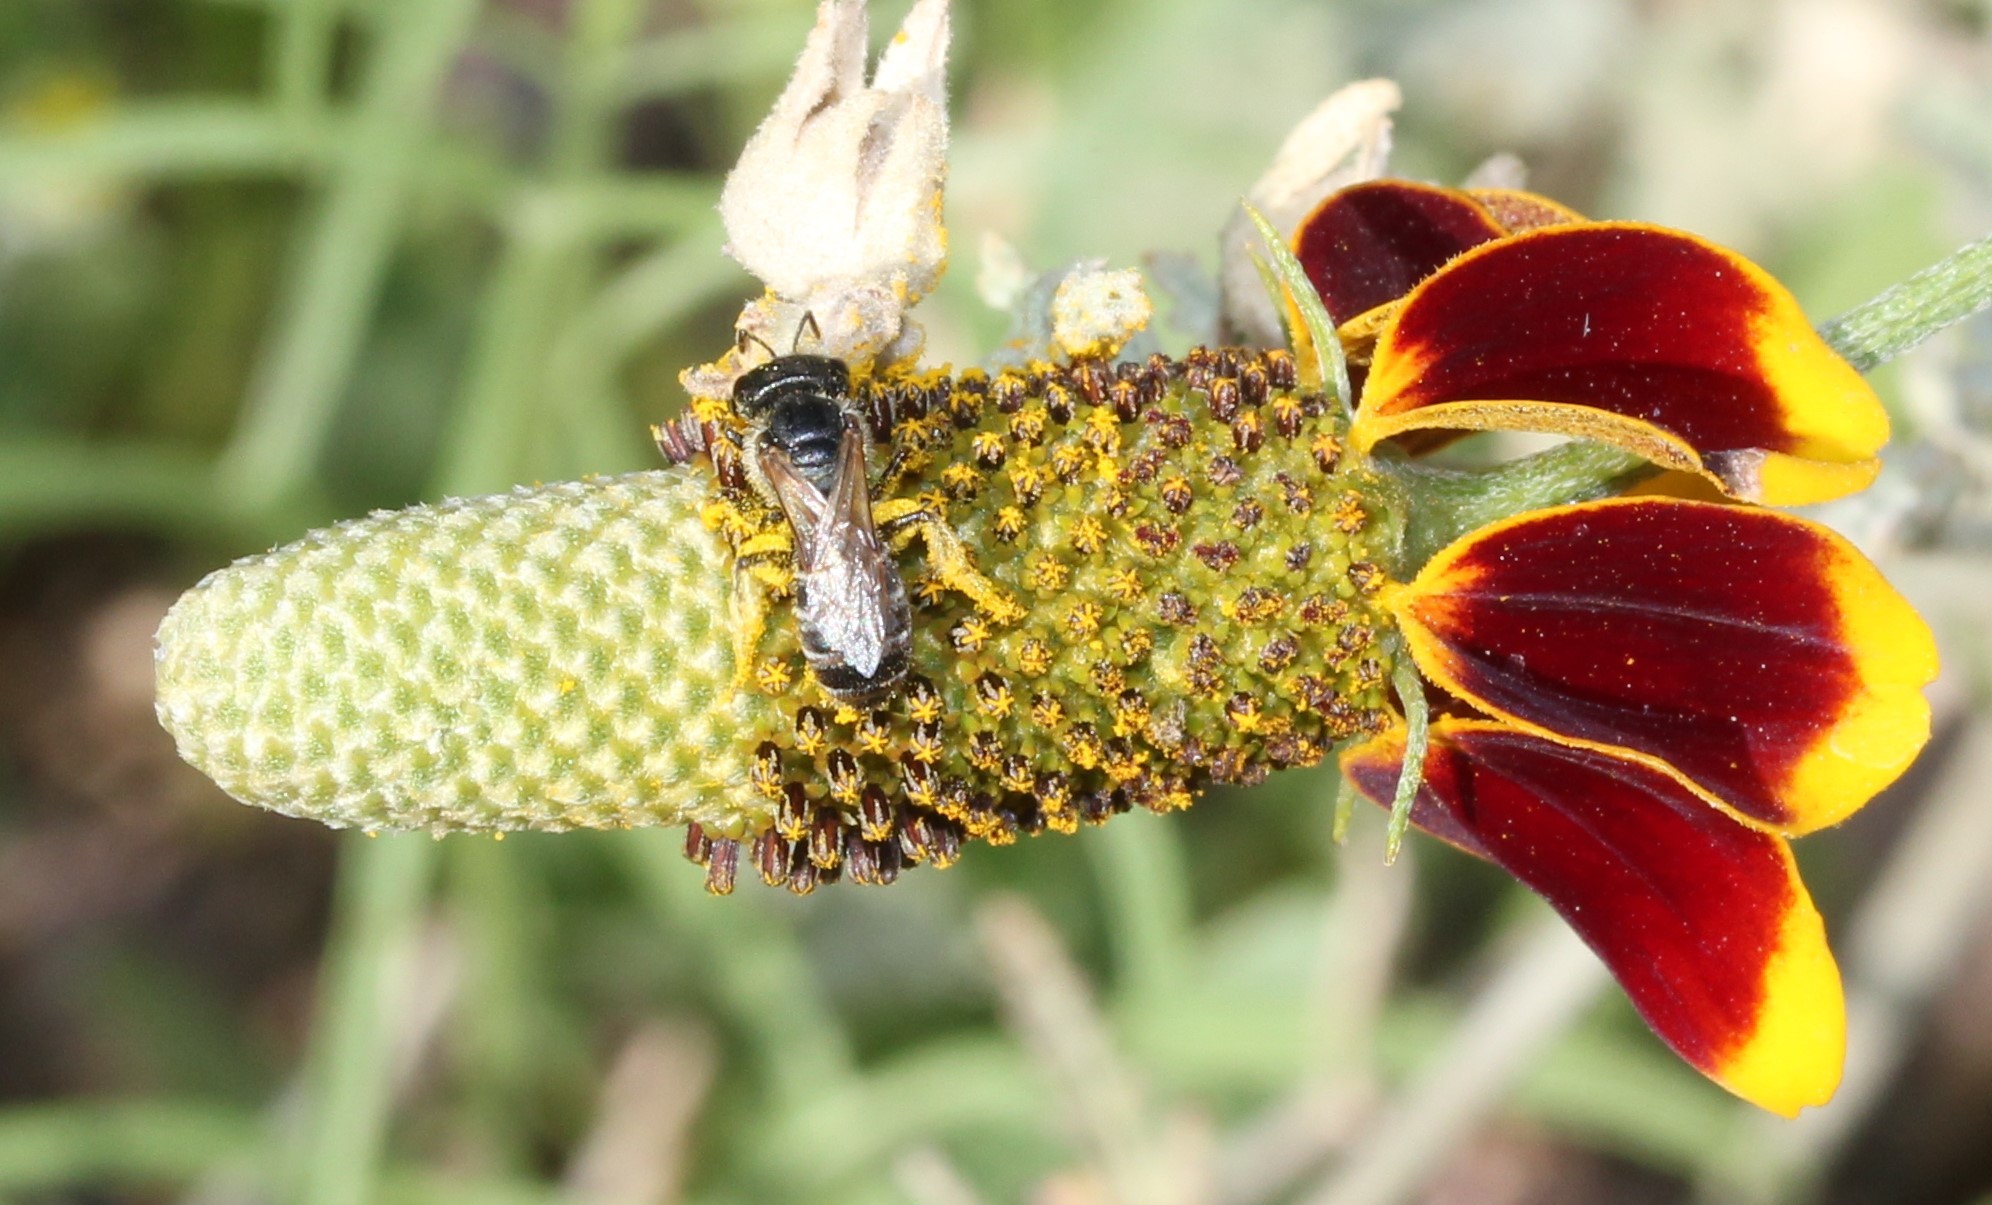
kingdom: Animalia
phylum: Arthropoda
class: Insecta
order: Hymenoptera
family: Halictidae
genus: Halictus
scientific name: Halictus ligatus
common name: Ligated furrow bee
